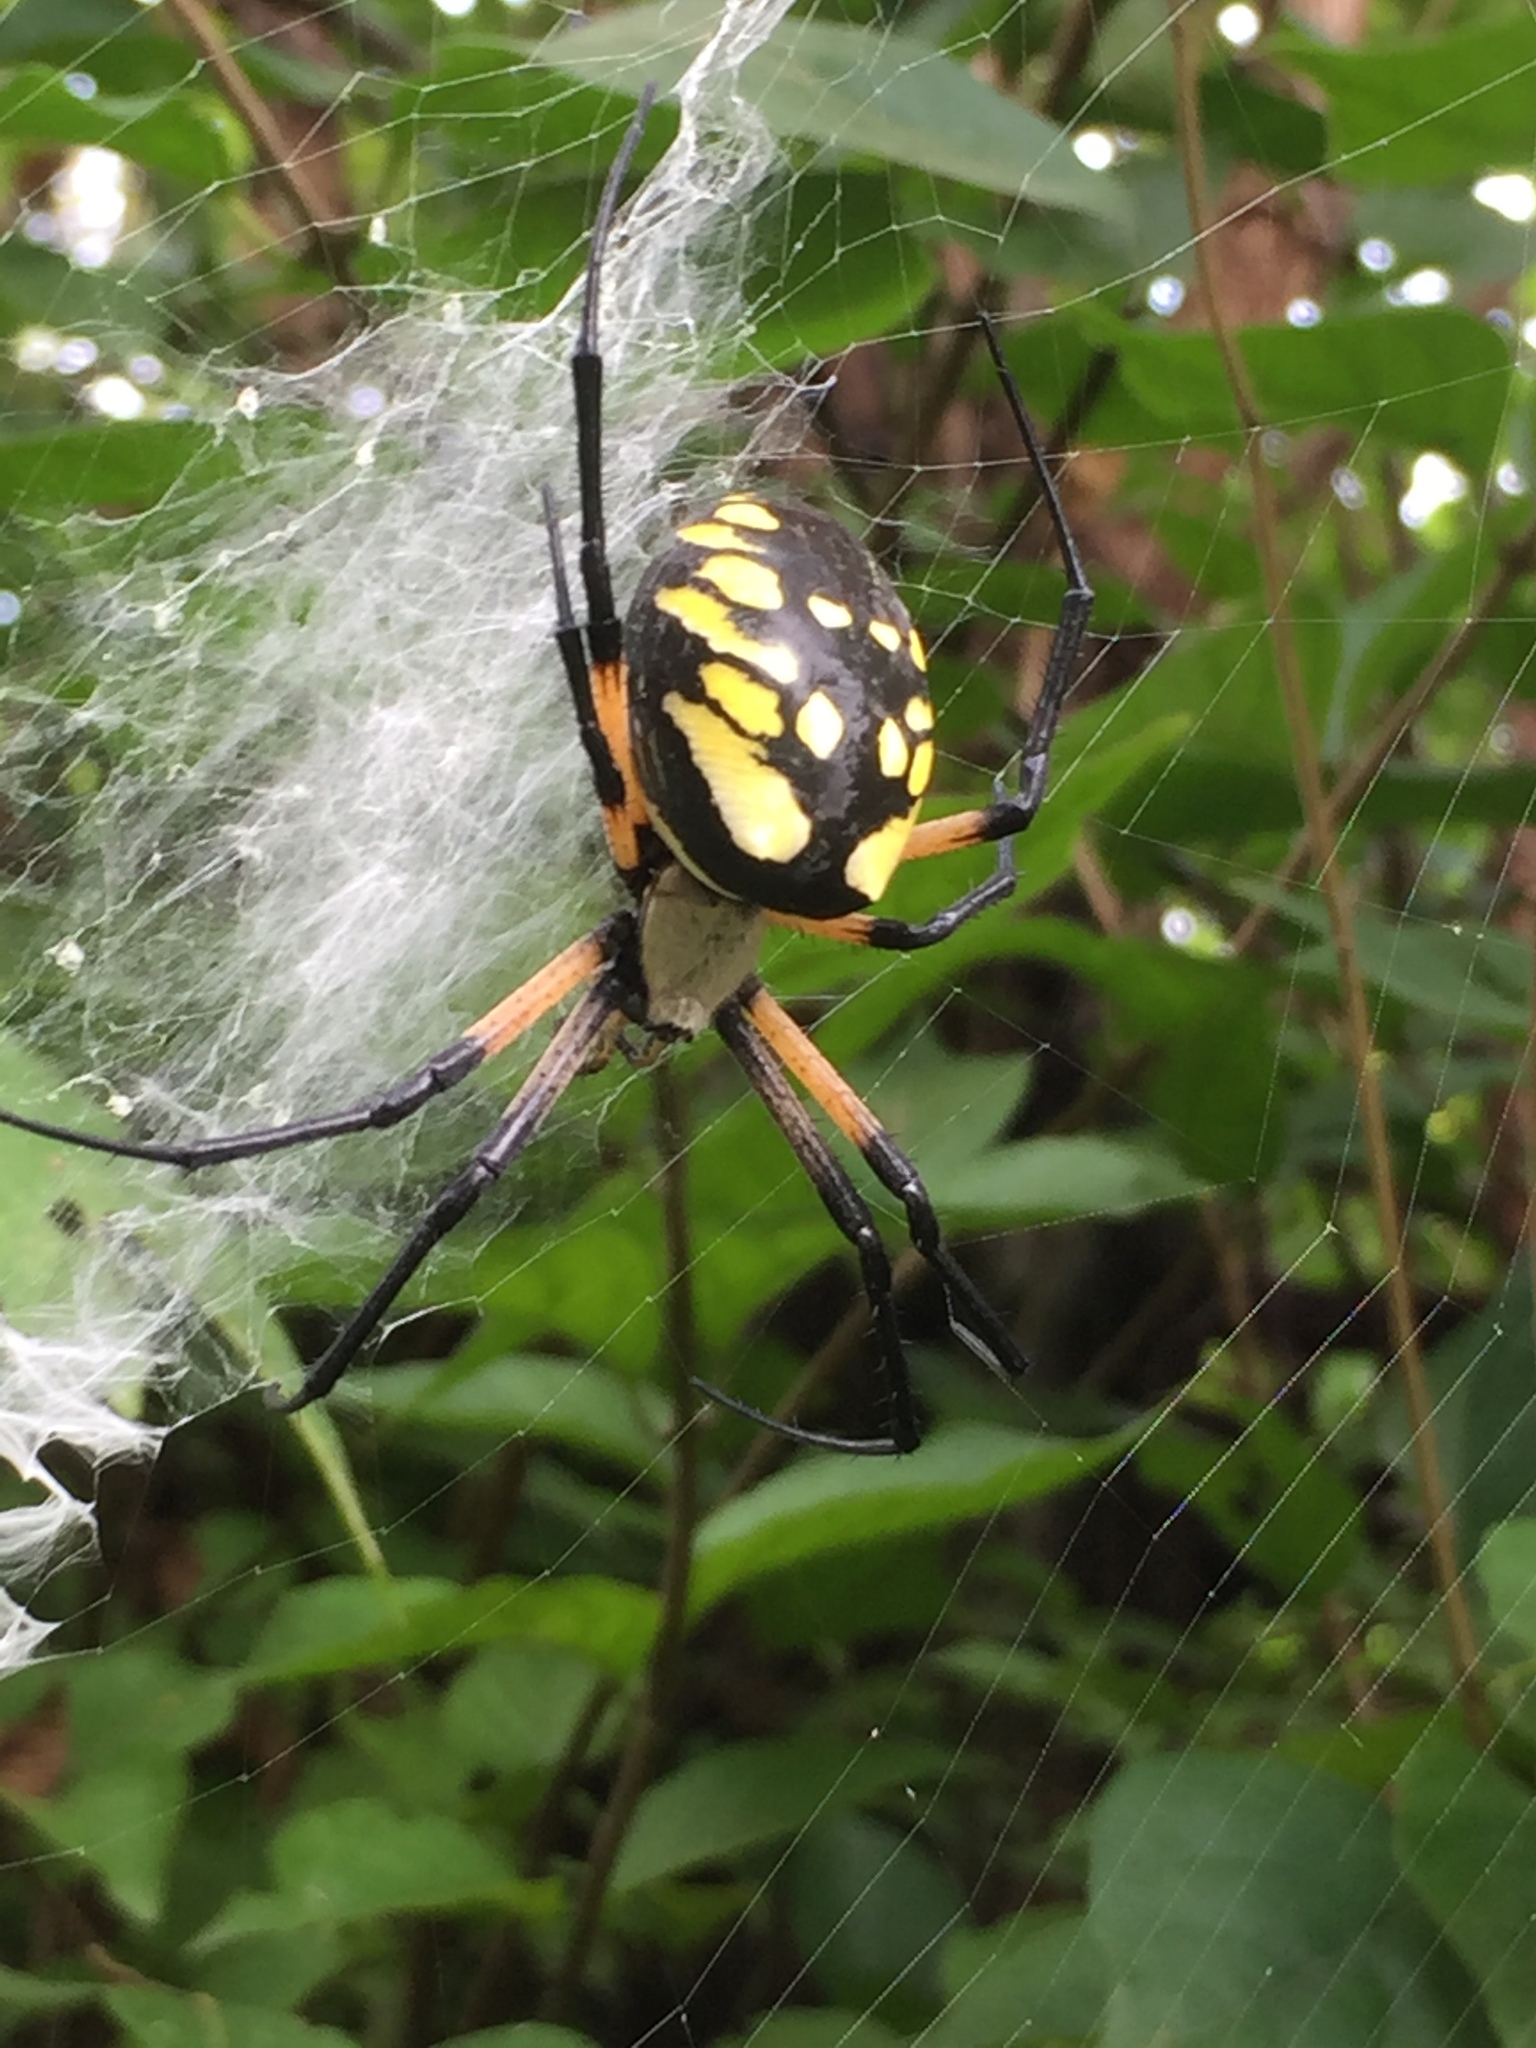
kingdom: Animalia
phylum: Arthropoda
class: Arachnida
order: Araneae
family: Araneidae
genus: Argiope
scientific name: Argiope aurantia
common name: Orb weavers
